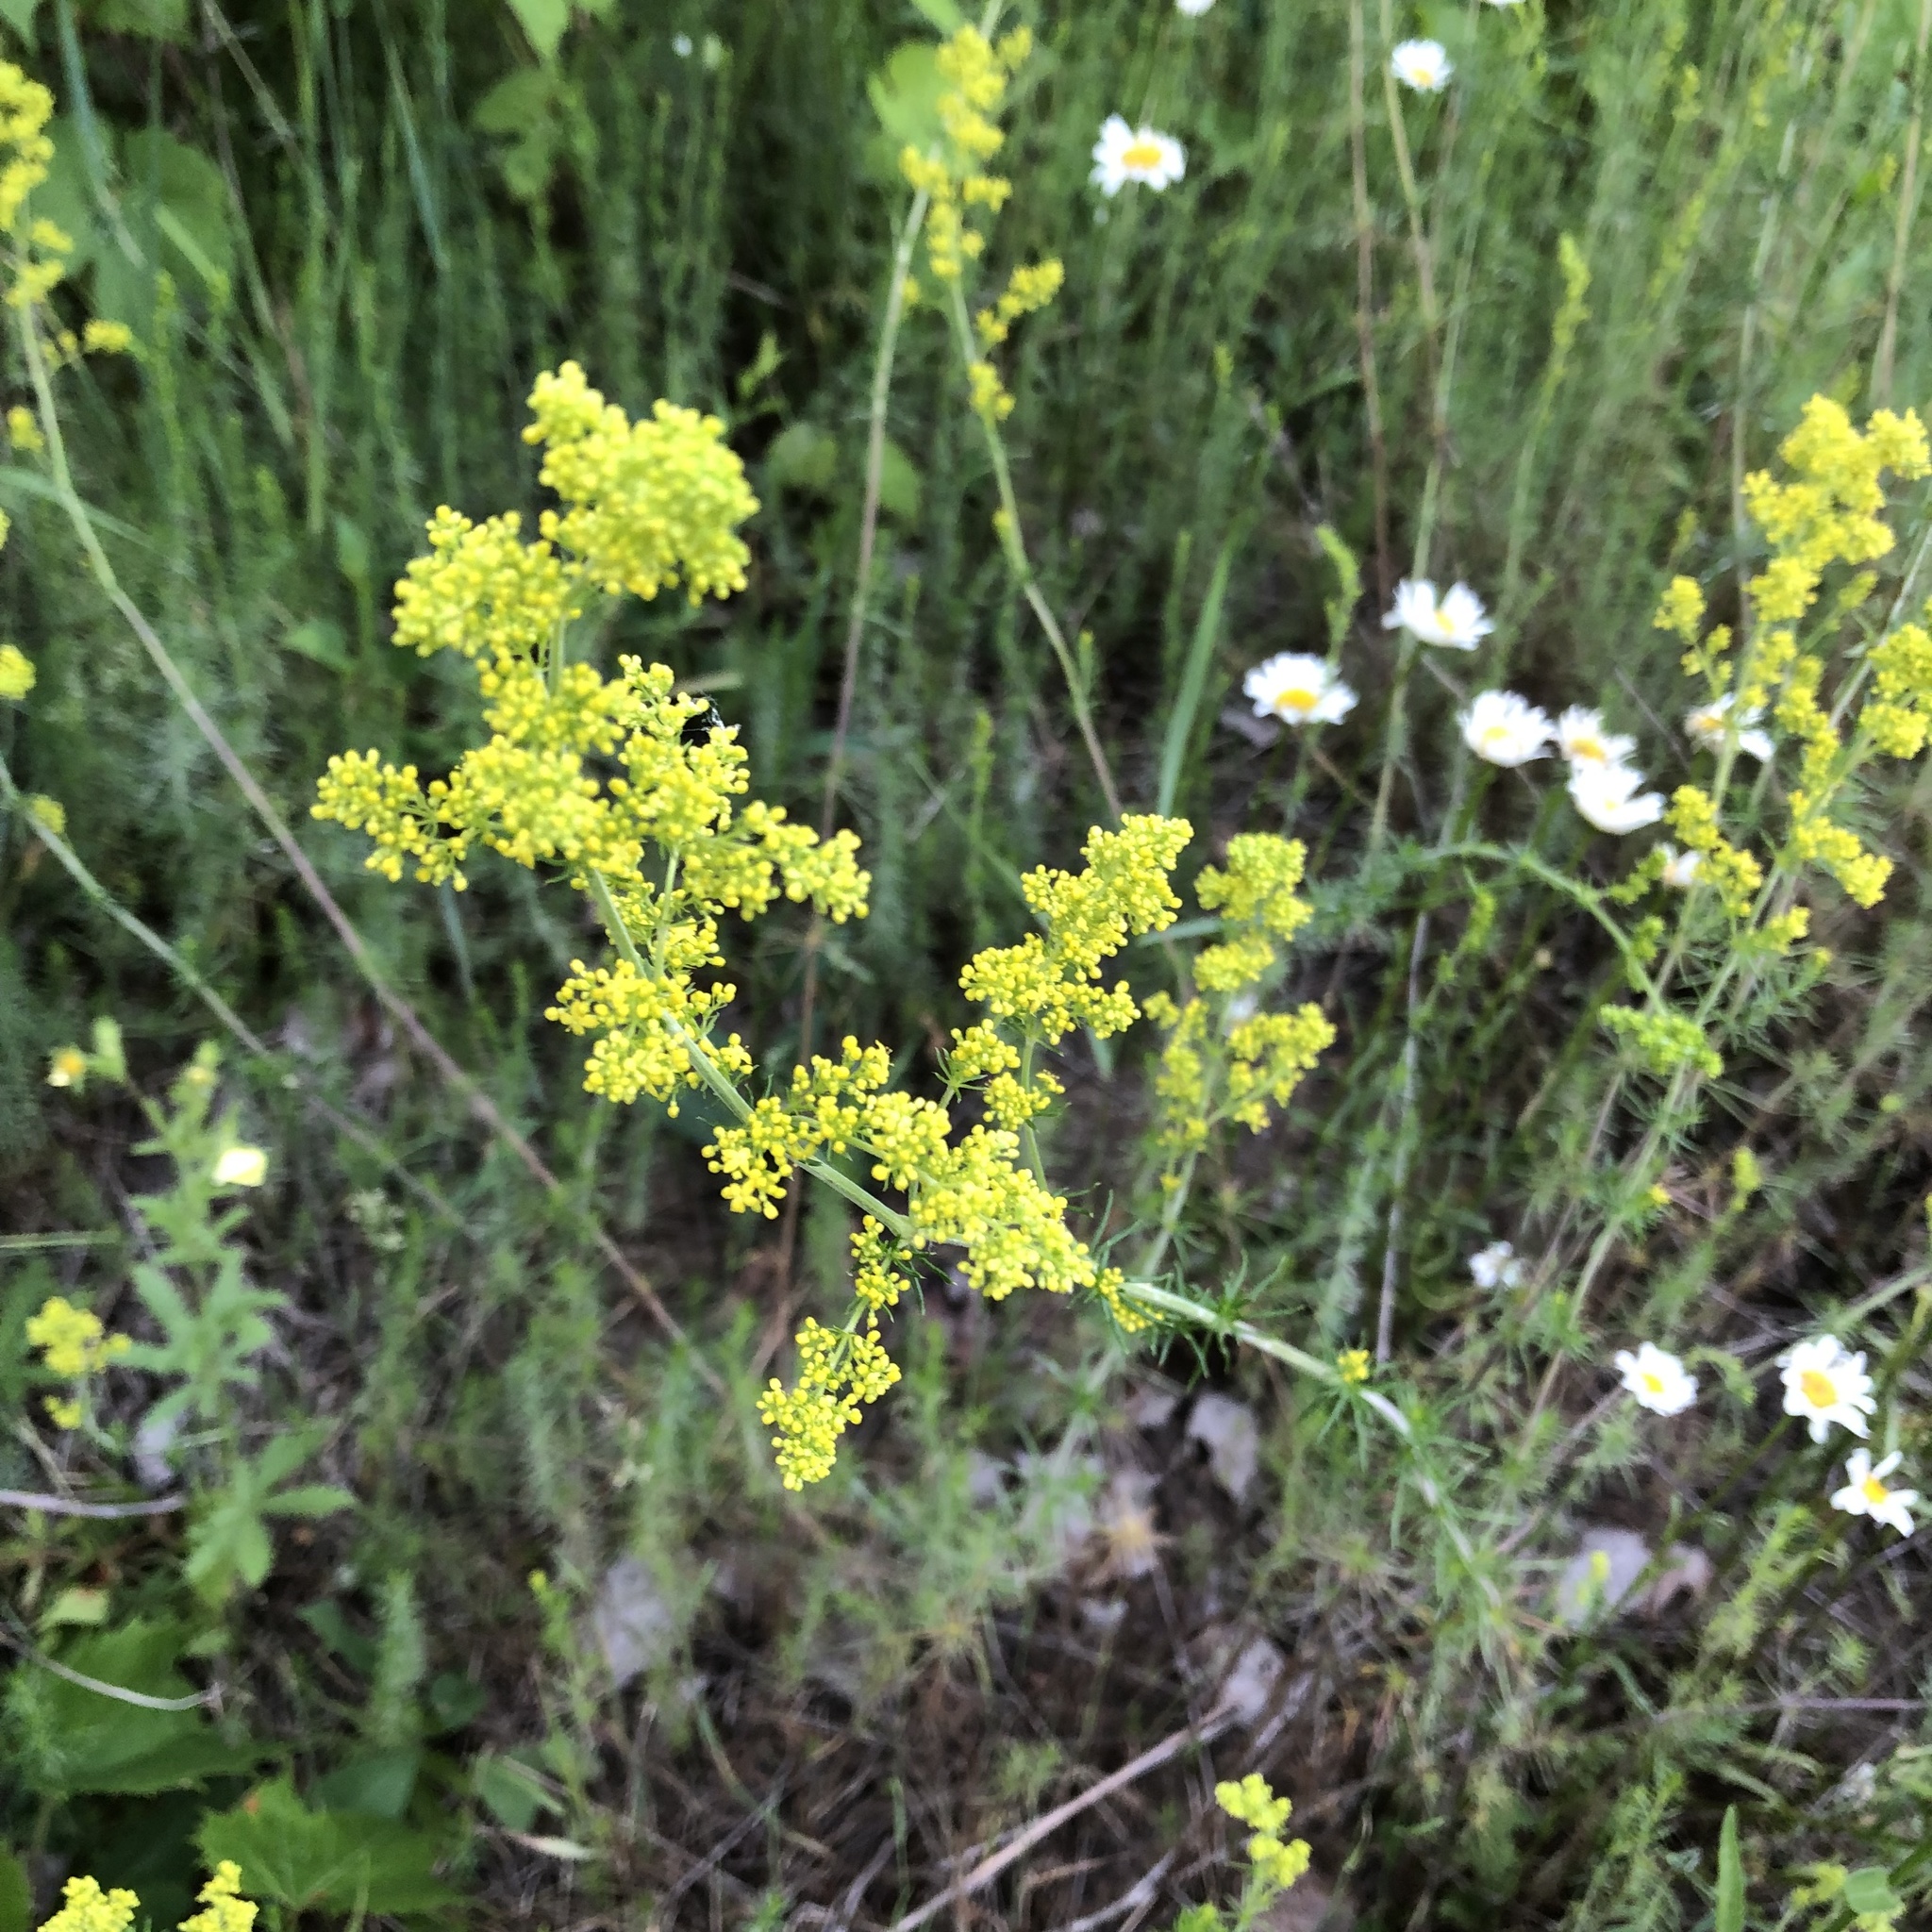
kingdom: Plantae
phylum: Tracheophyta
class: Magnoliopsida
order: Gentianales
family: Rubiaceae
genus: Galium
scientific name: Galium verum
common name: Lady's bedstraw
